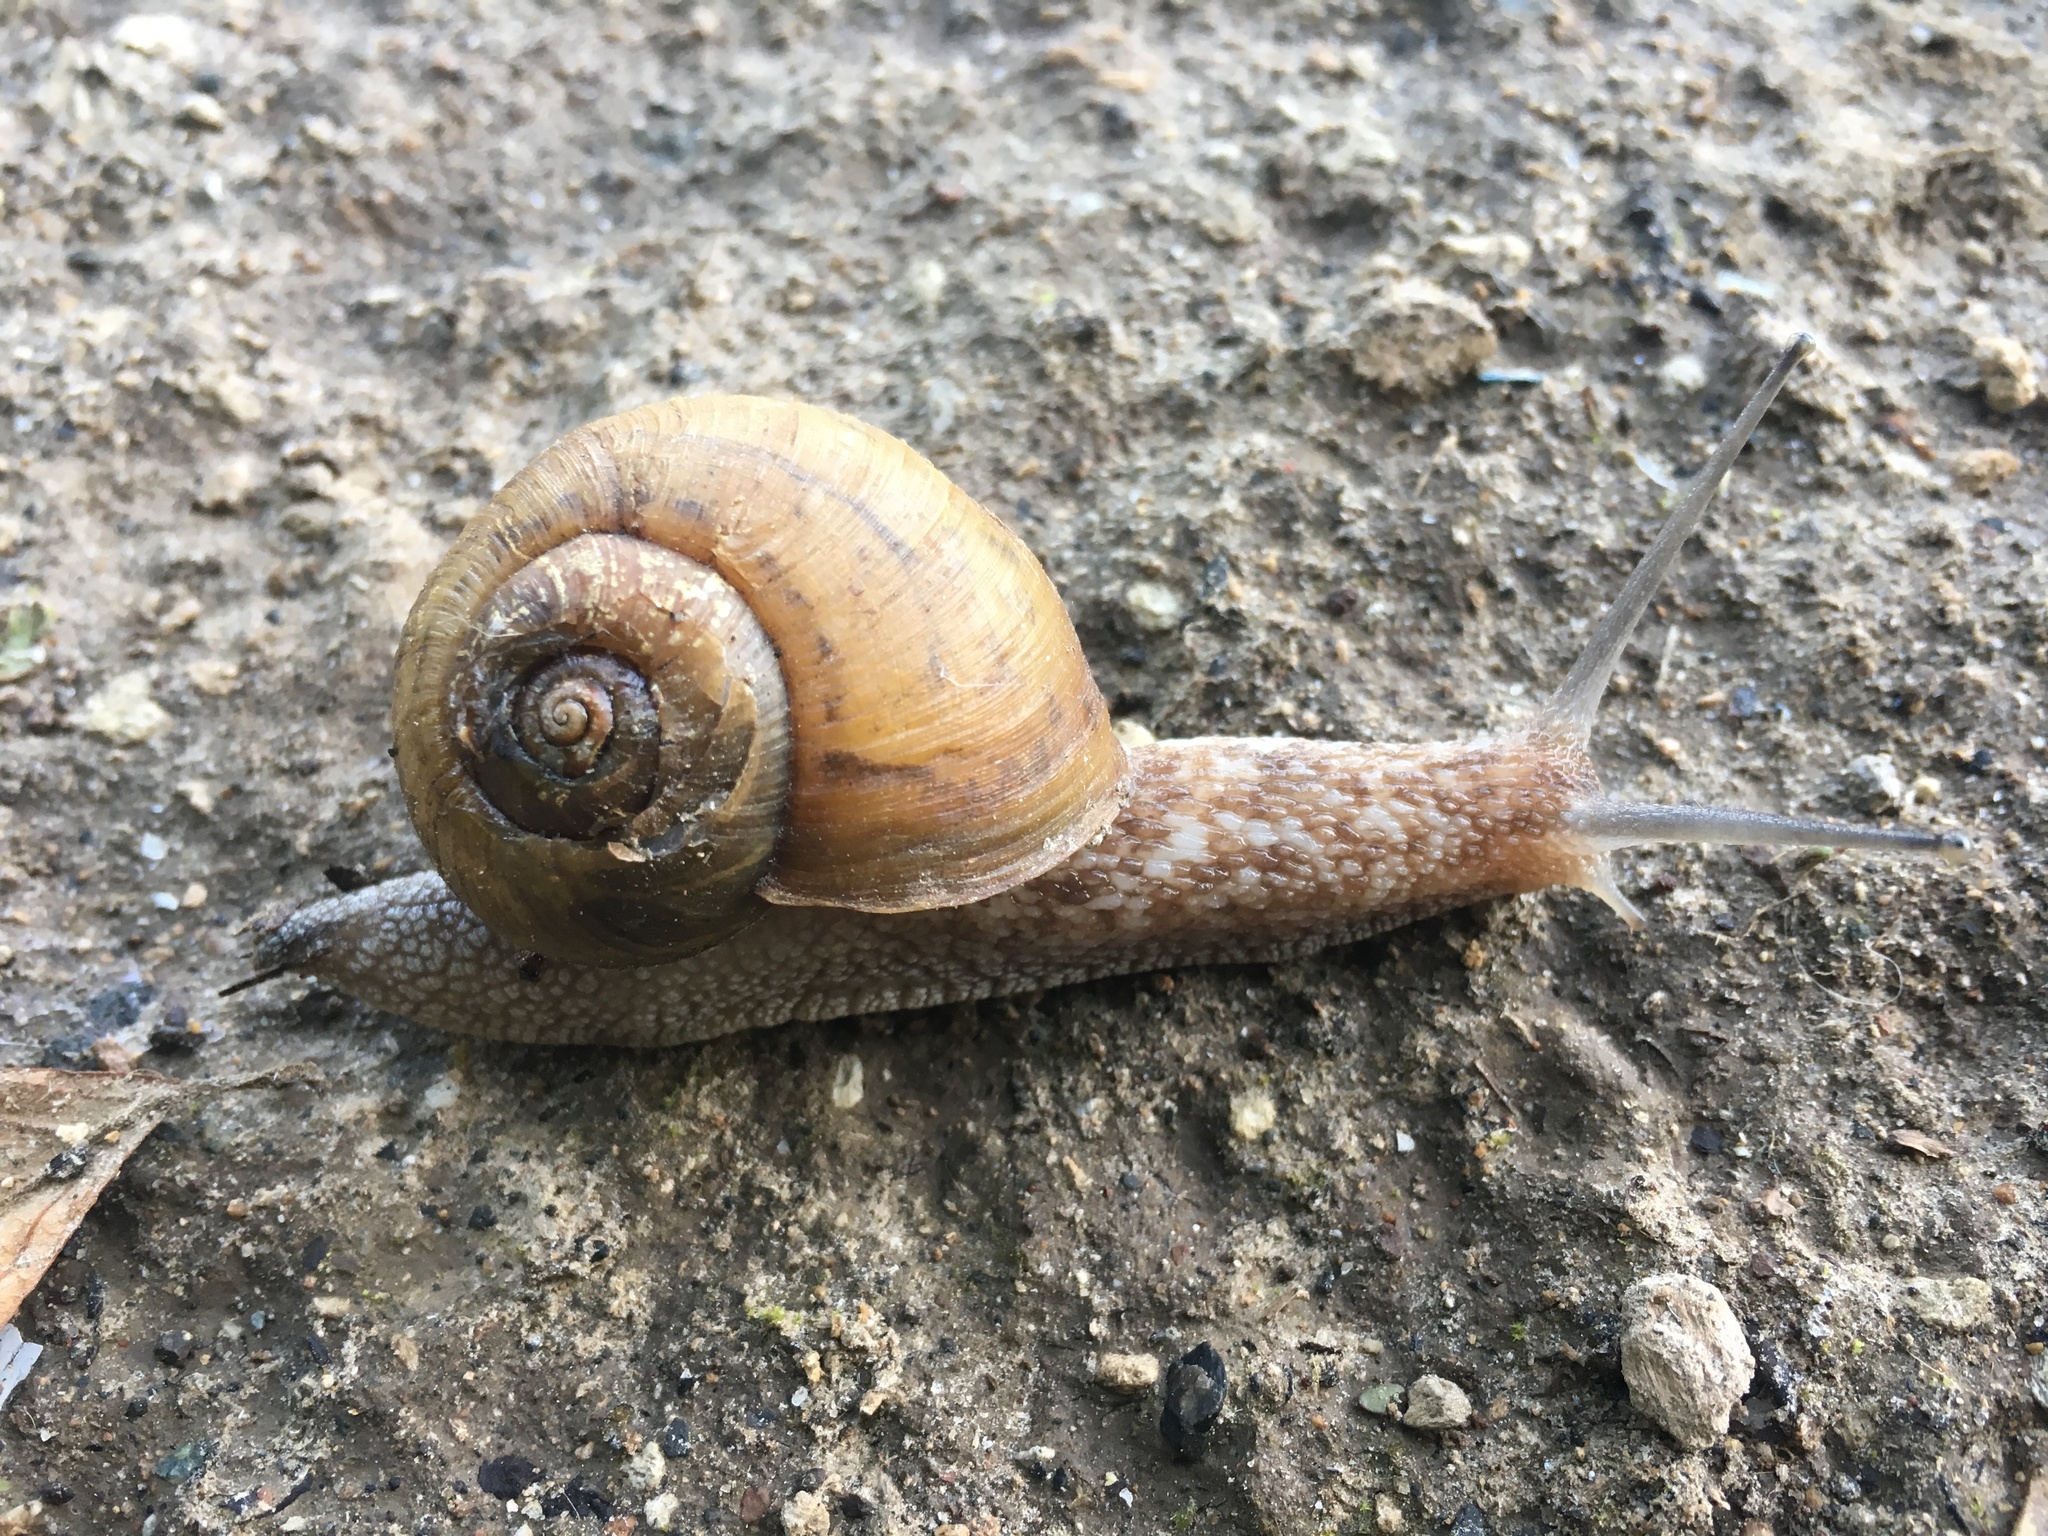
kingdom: Animalia
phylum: Mollusca
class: Gastropoda
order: Stylommatophora
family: Camaenidae
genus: Karaftohelix
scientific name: Karaftohelix gainesi
